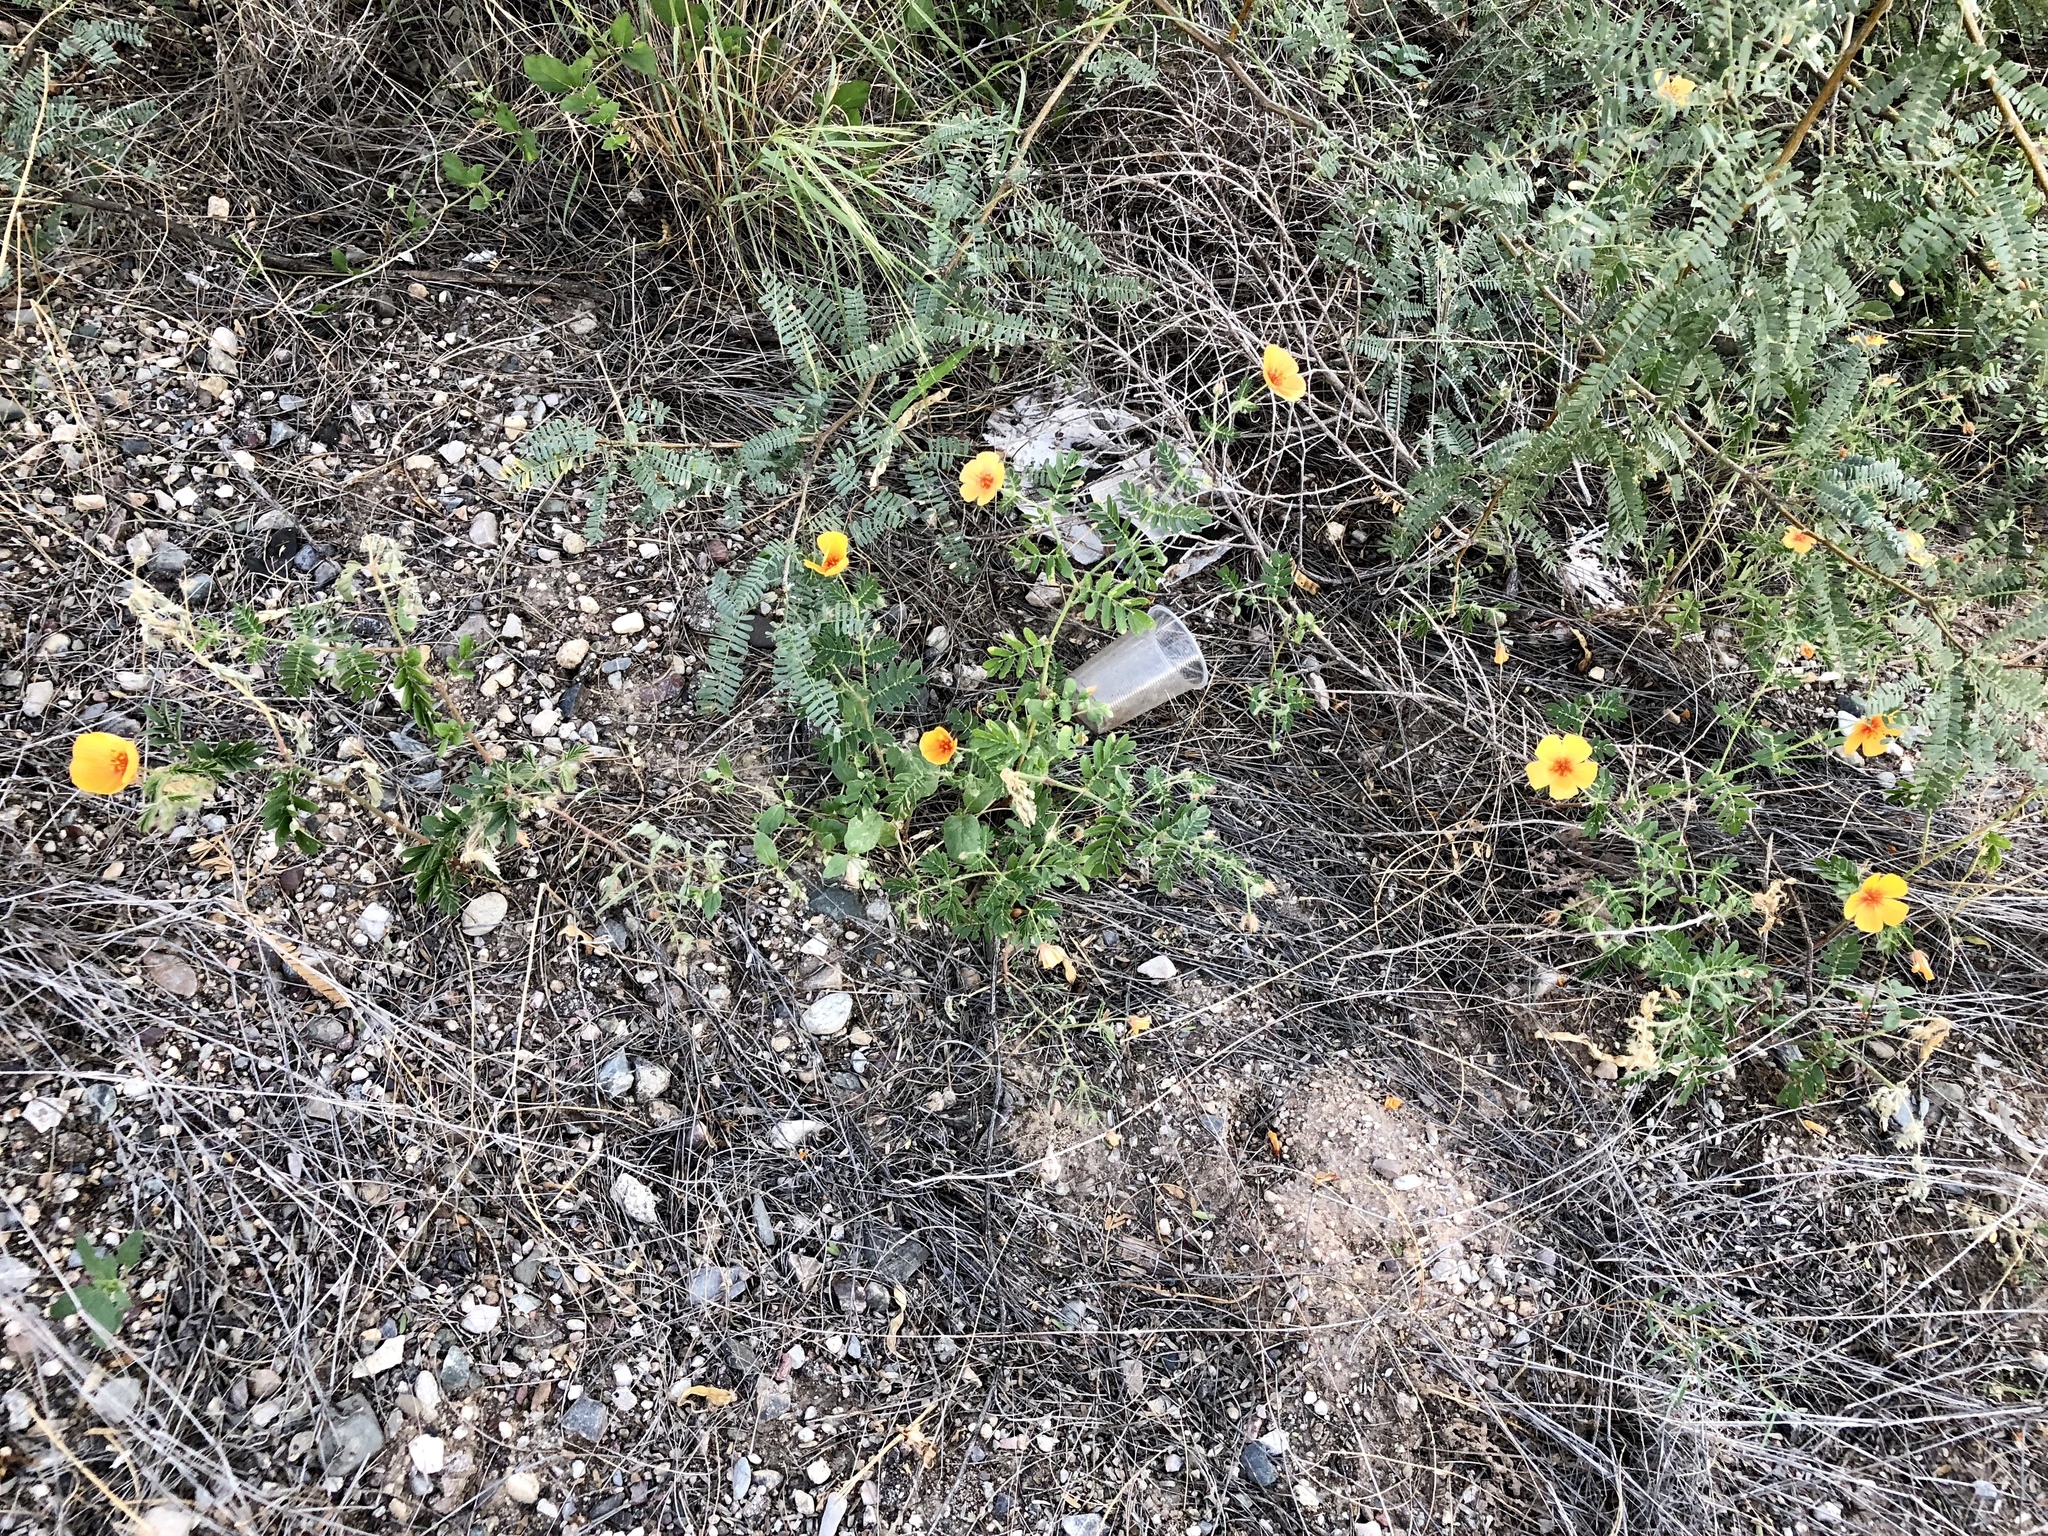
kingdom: Plantae
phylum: Tracheophyta
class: Magnoliopsida
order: Zygophyllales
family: Zygophyllaceae
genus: Kallstroemia
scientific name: Kallstroemia grandiflora
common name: Arizona-poppy
